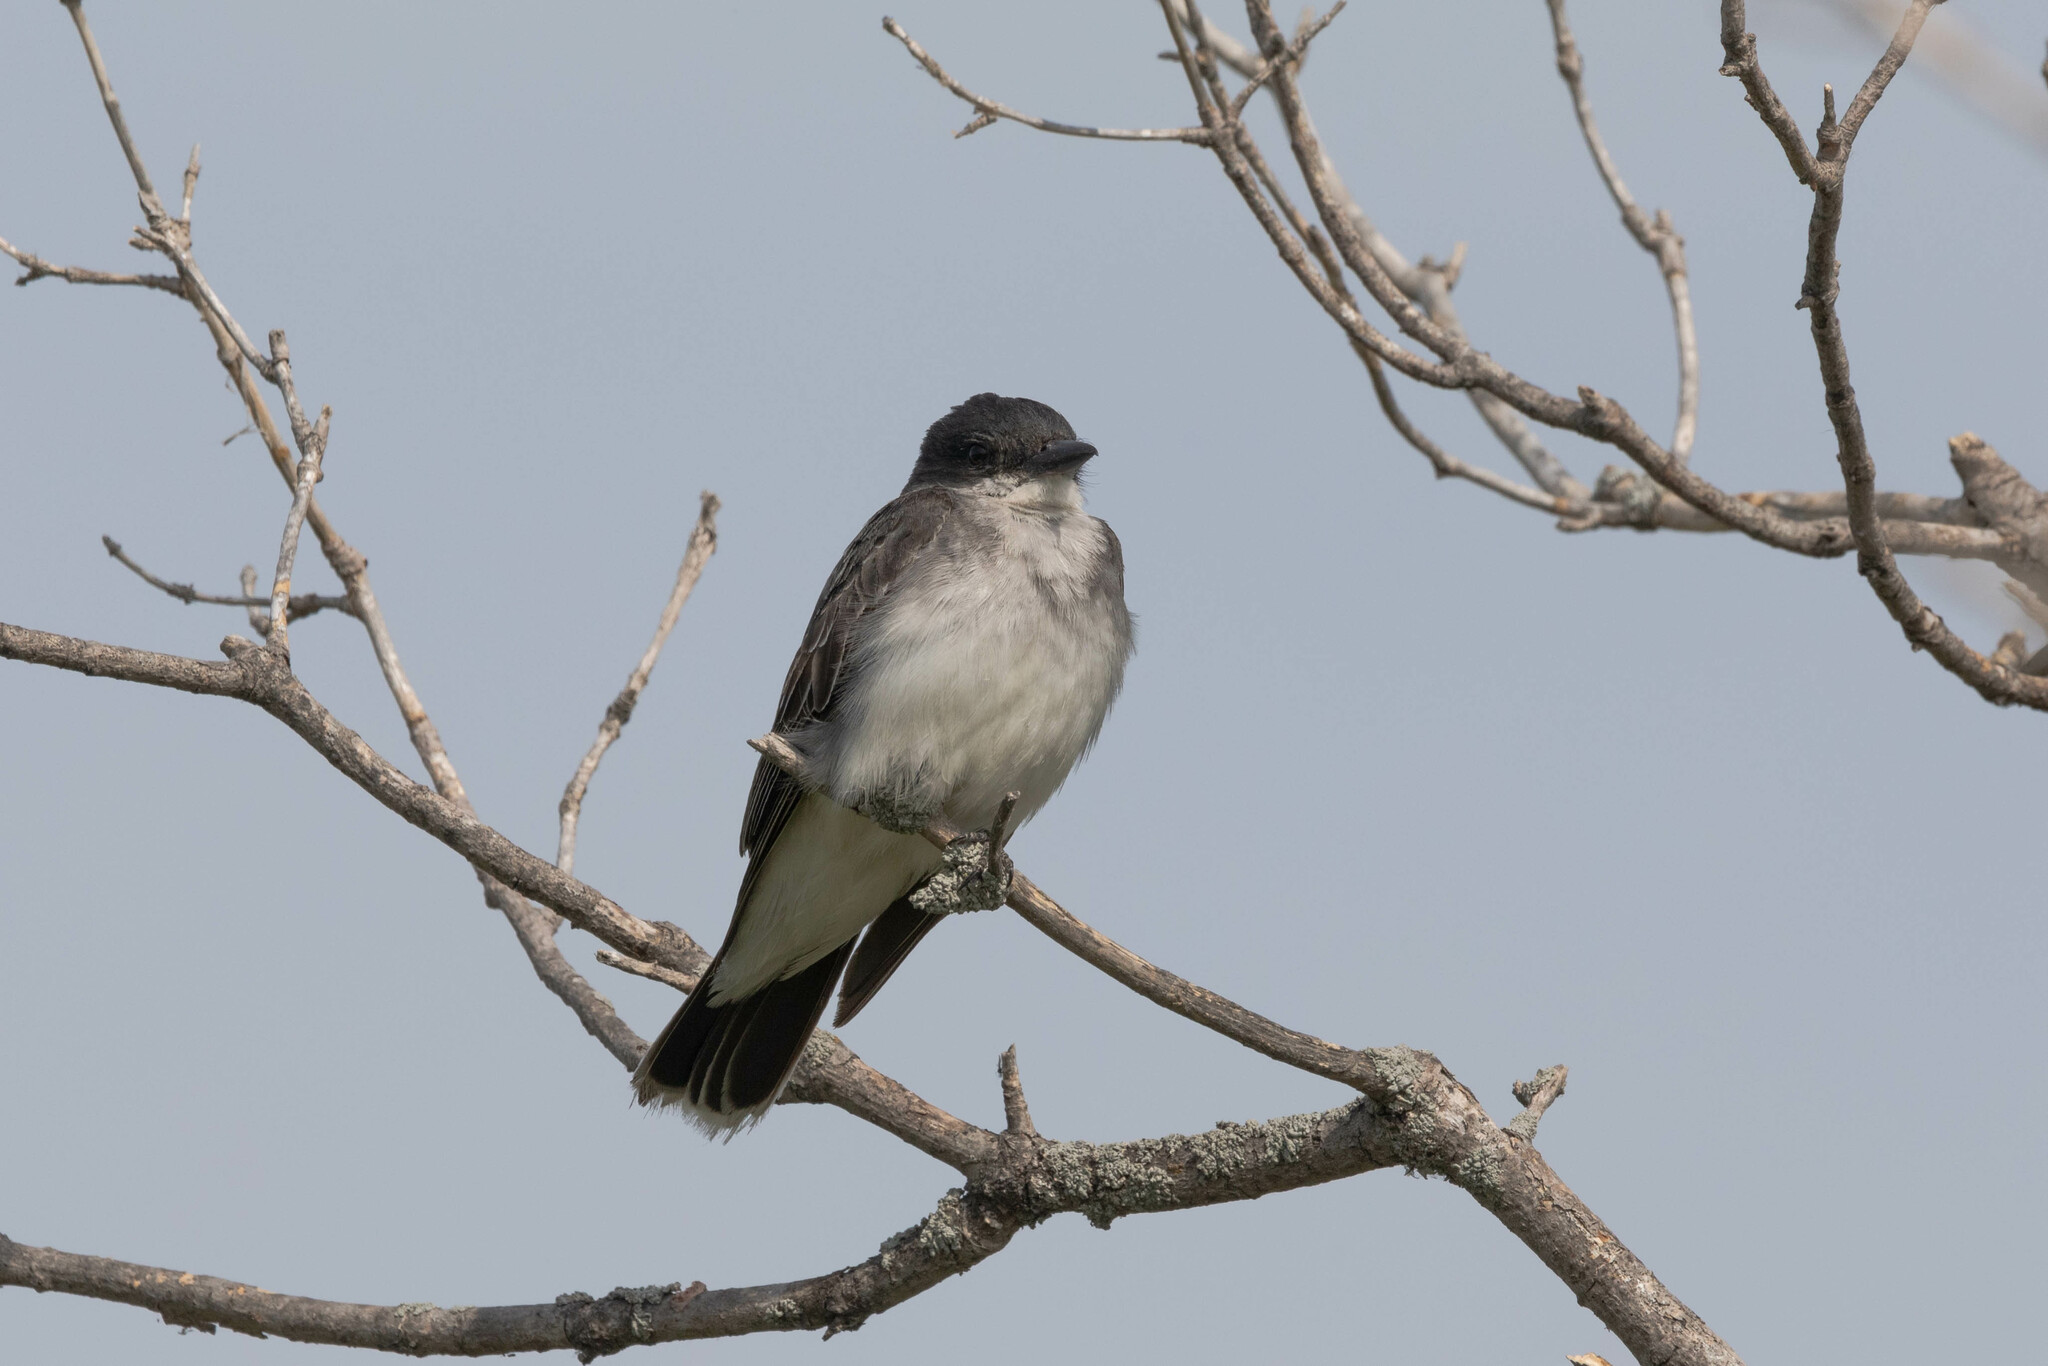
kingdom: Animalia
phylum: Chordata
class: Aves
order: Passeriformes
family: Tyrannidae
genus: Tyrannus
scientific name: Tyrannus tyrannus
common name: Eastern kingbird
